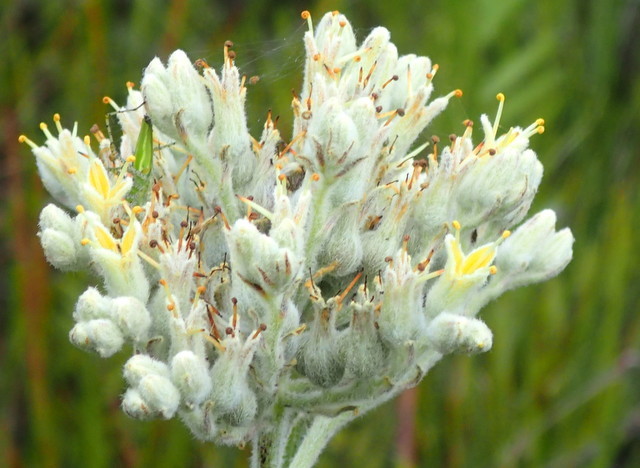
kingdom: Plantae
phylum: Tracheophyta
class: Liliopsida
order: Commelinales
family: Haemodoraceae
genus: Lachnanthes
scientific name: Lachnanthes caroliana
